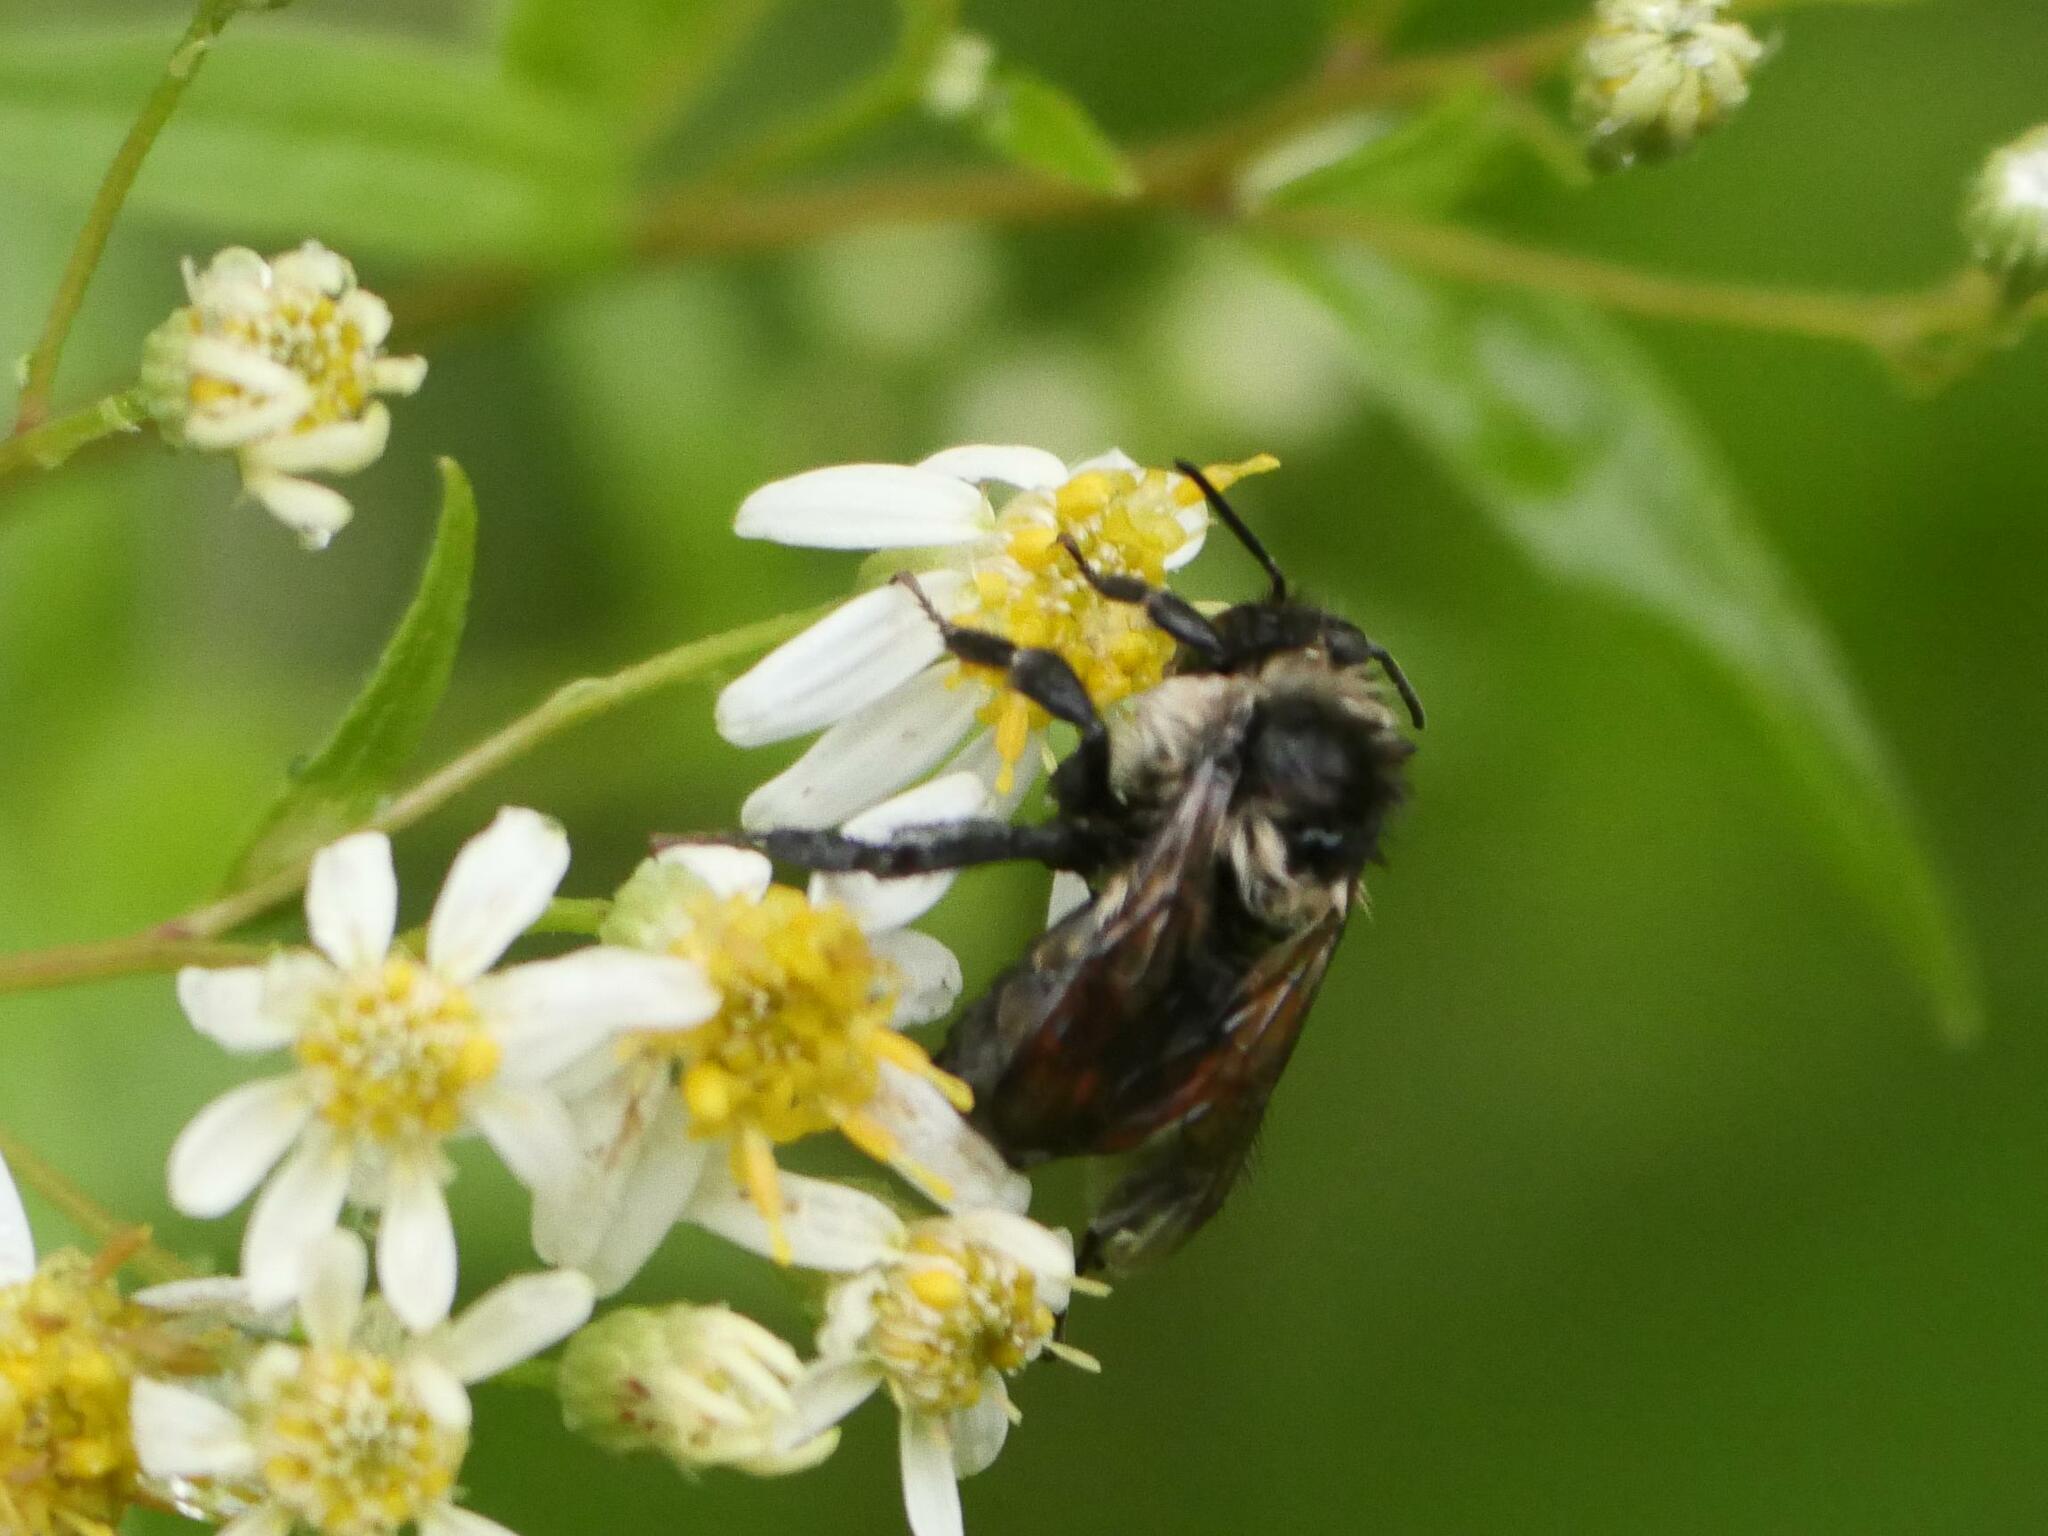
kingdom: Animalia
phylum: Arthropoda
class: Insecta
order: Hymenoptera
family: Apidae
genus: Bombus
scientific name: Bombus ternarius
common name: Tri-colored bumble bee
